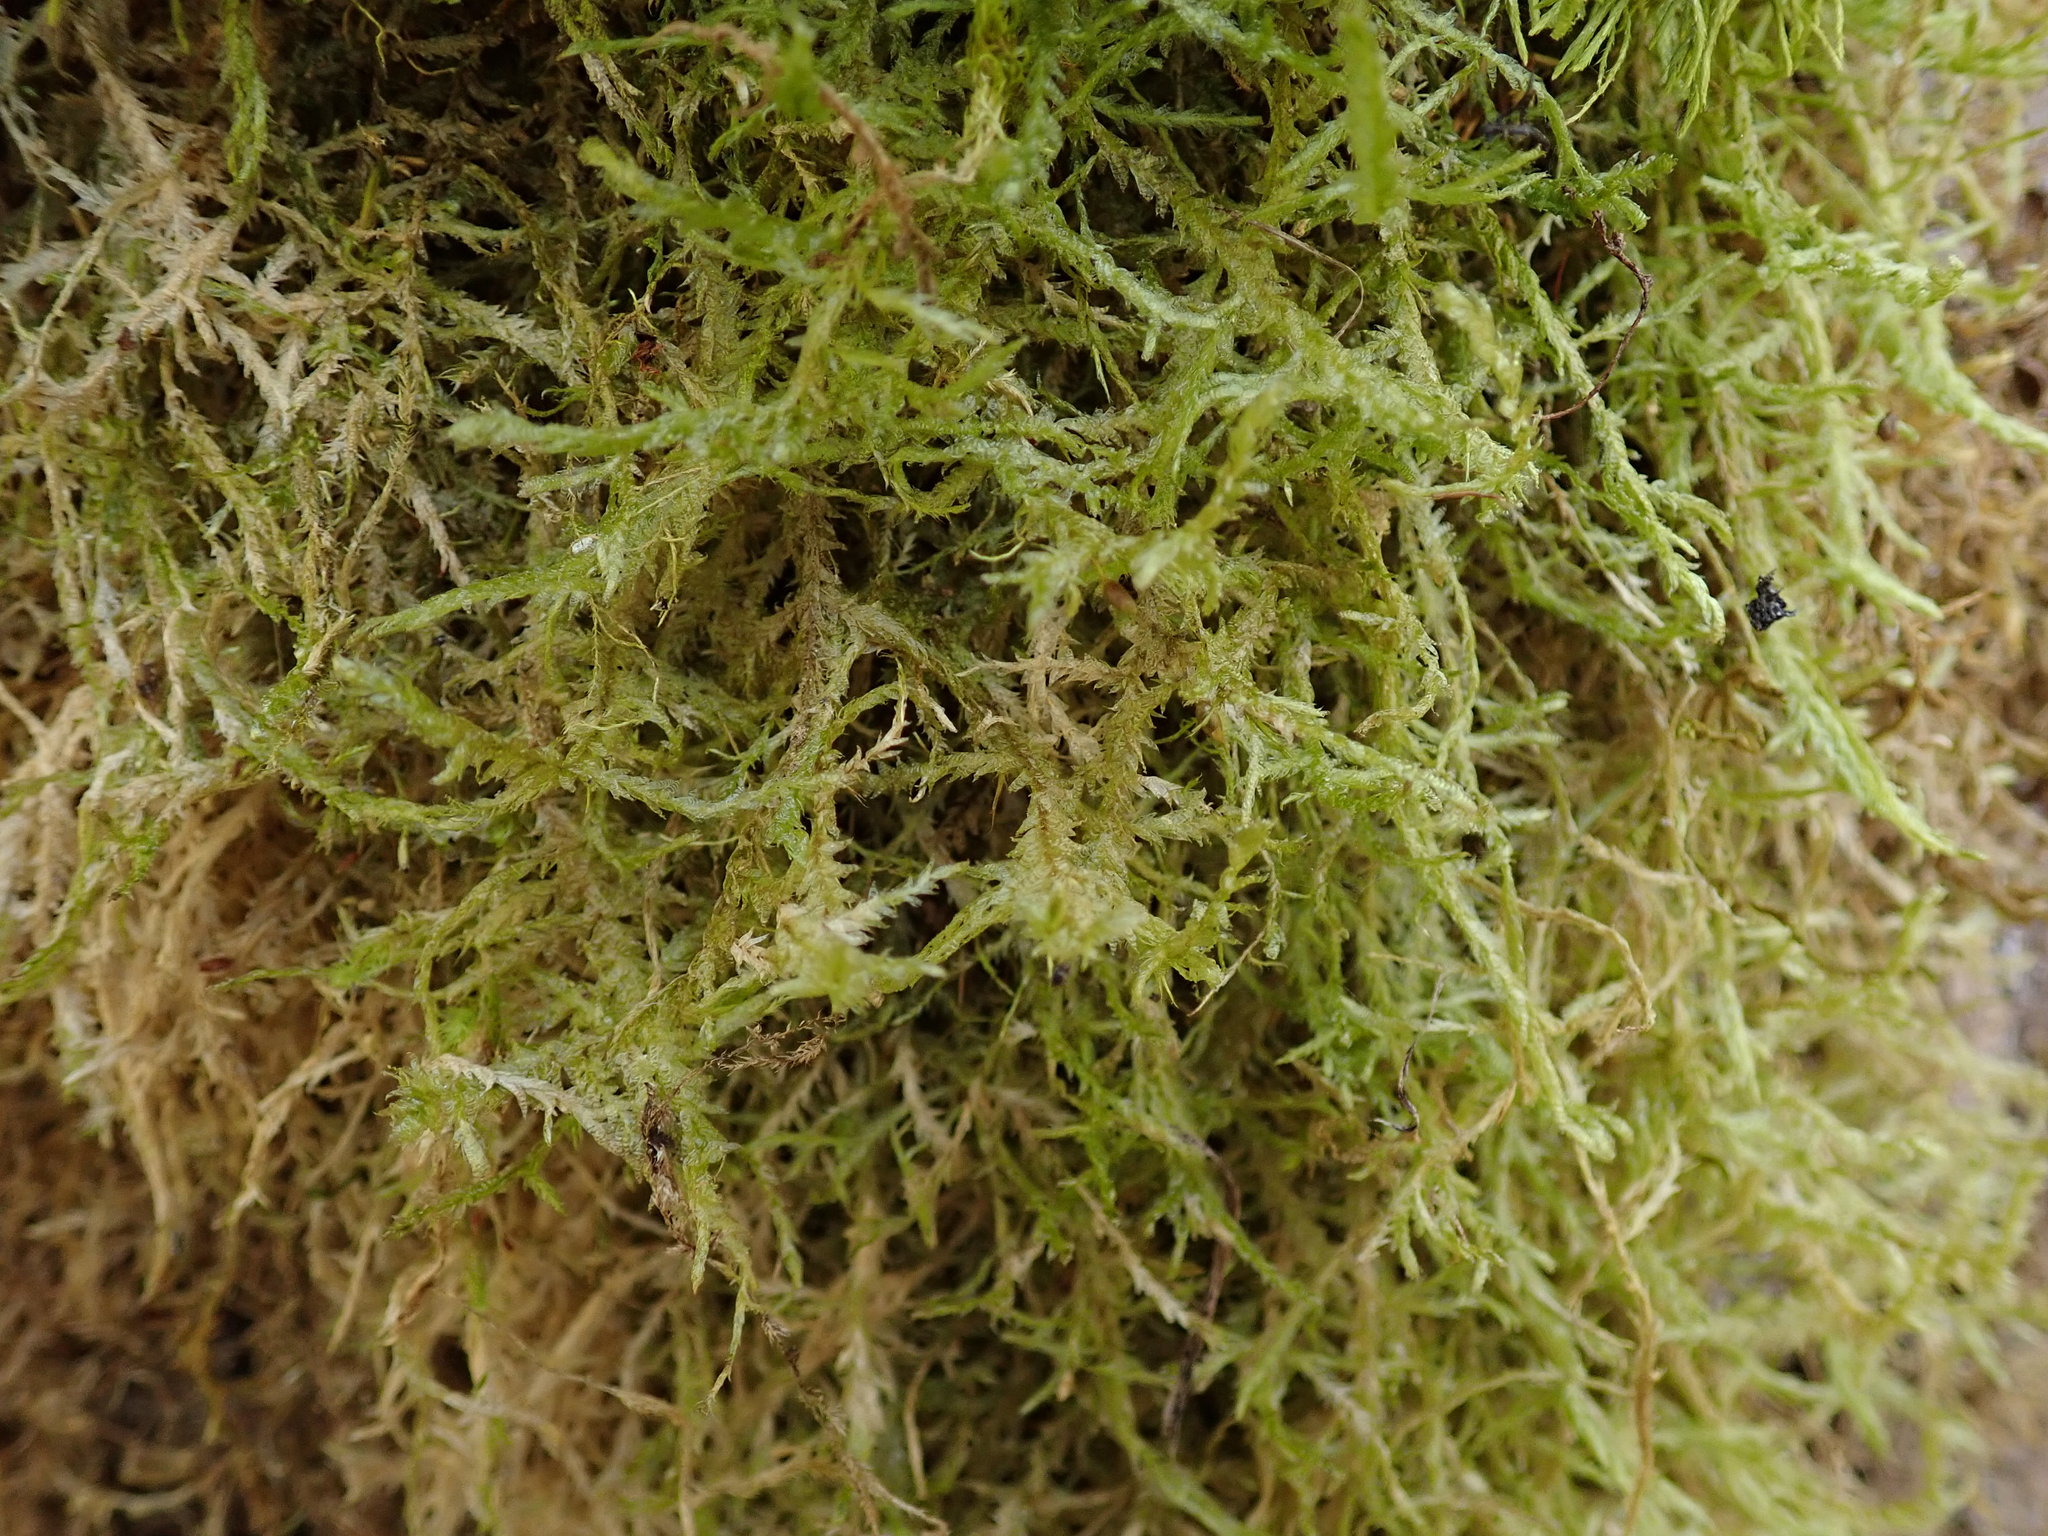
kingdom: Plantae
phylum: Bryophyta
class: Bryopsida
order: Hypnales
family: Neckeraceae
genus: Neckera
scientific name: Neckera douglasii
